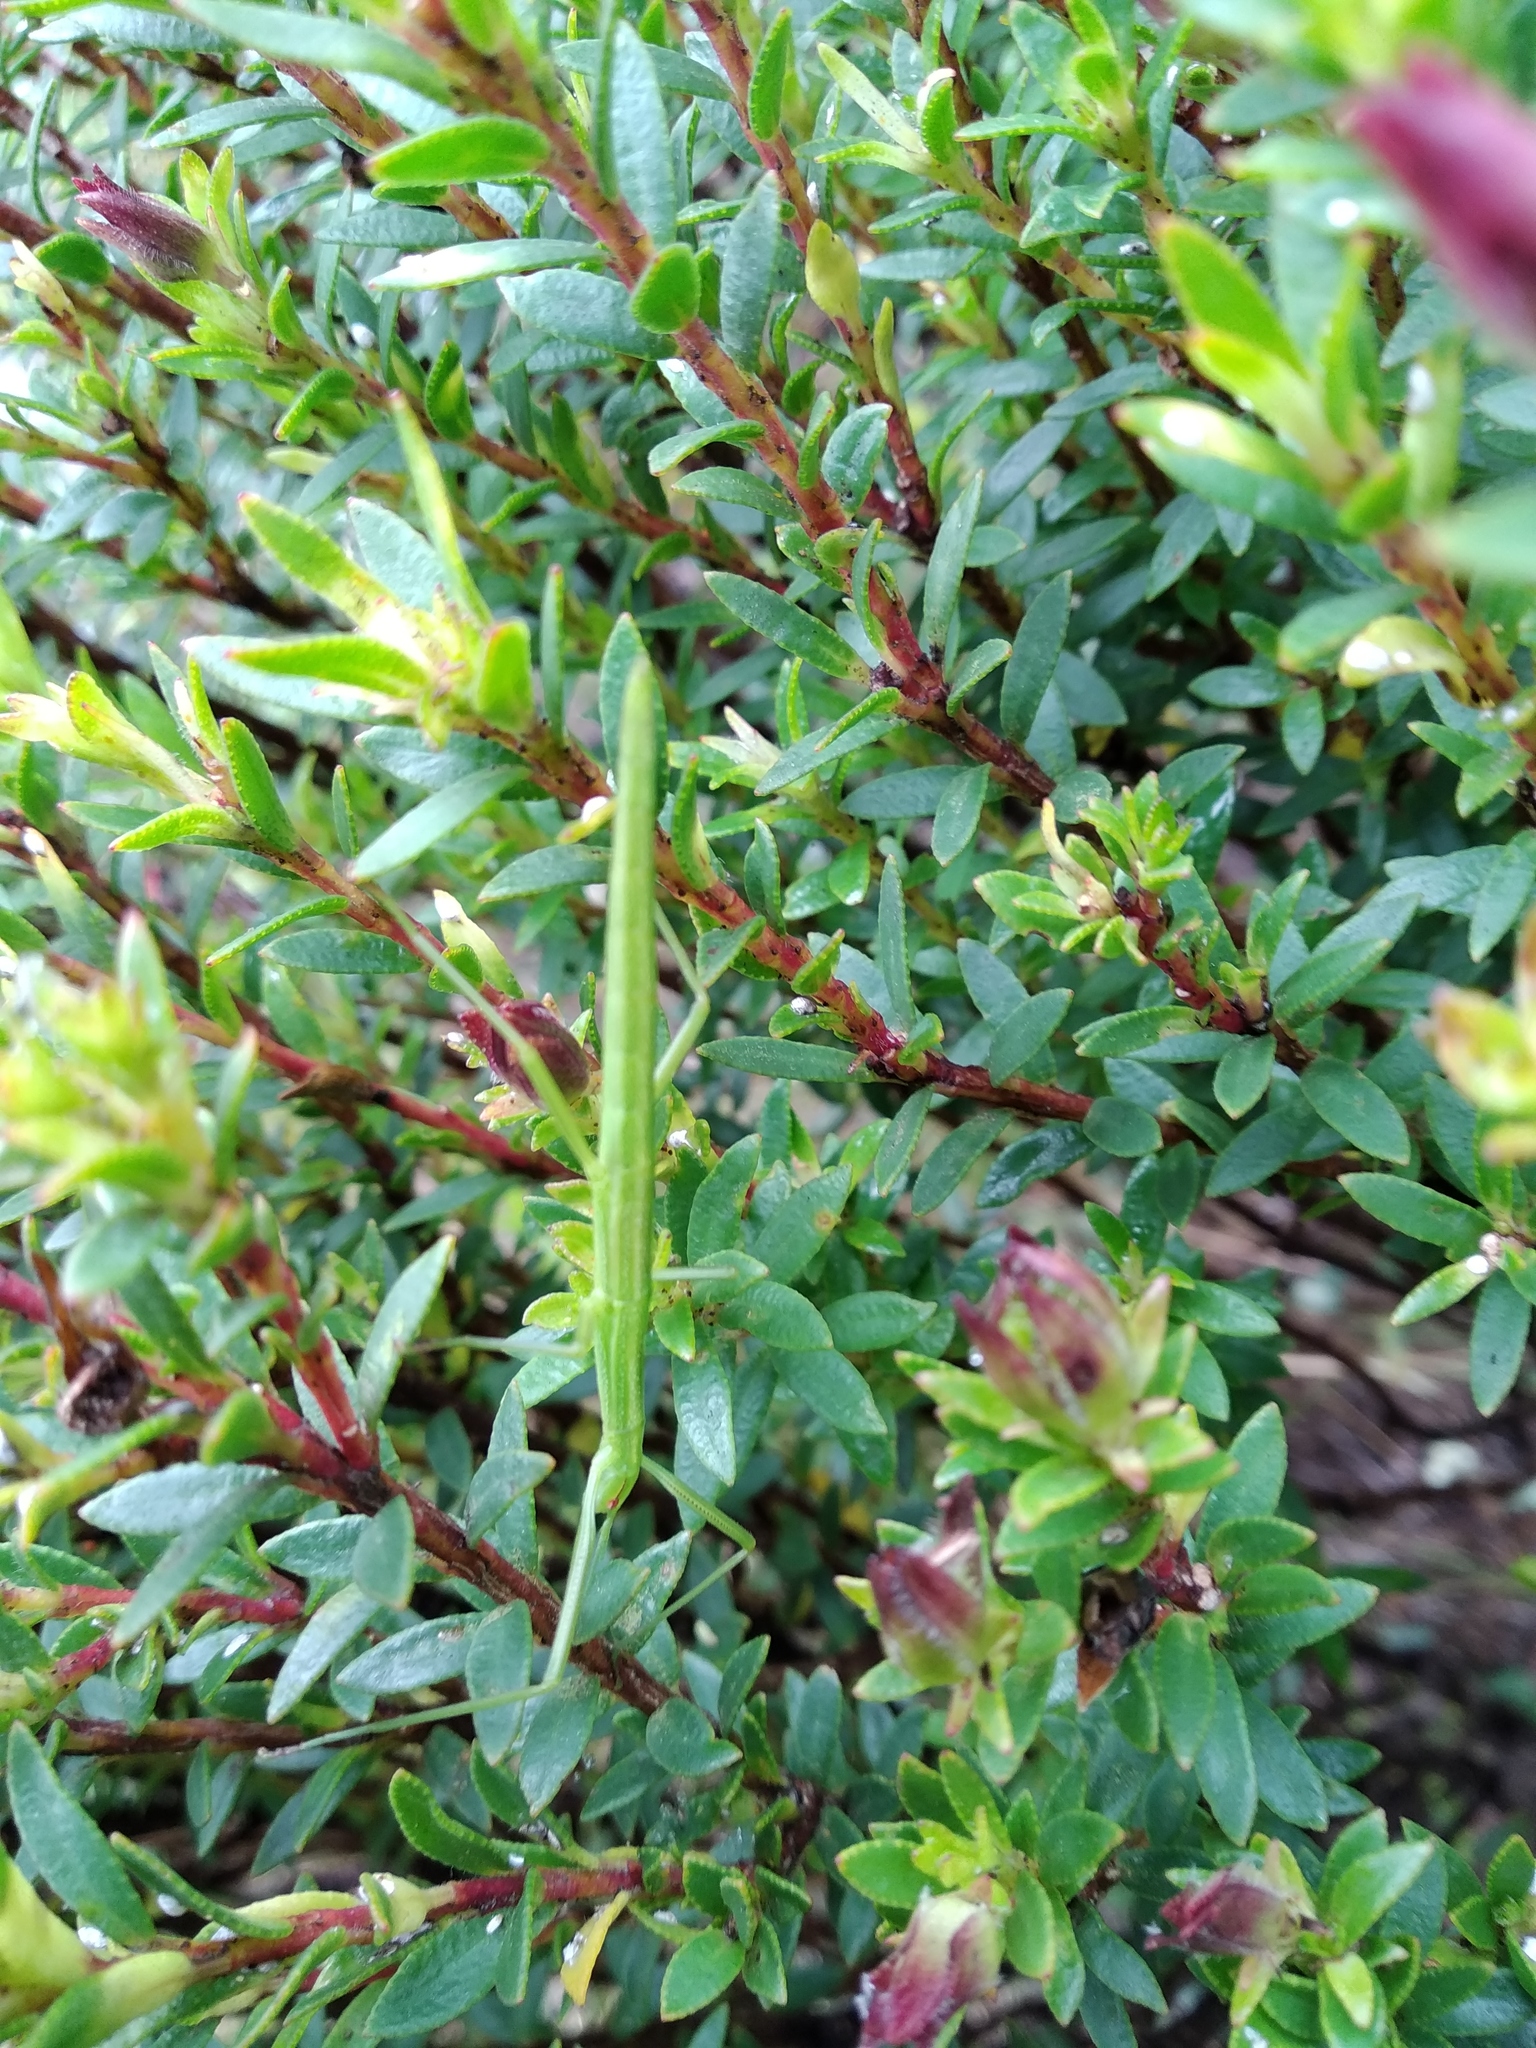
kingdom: Animalia
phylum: Arthropoda
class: Insecta
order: Phasmida
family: Bacillidae
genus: Macynia
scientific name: Macynia labiata
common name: Thunberg's stick insect
